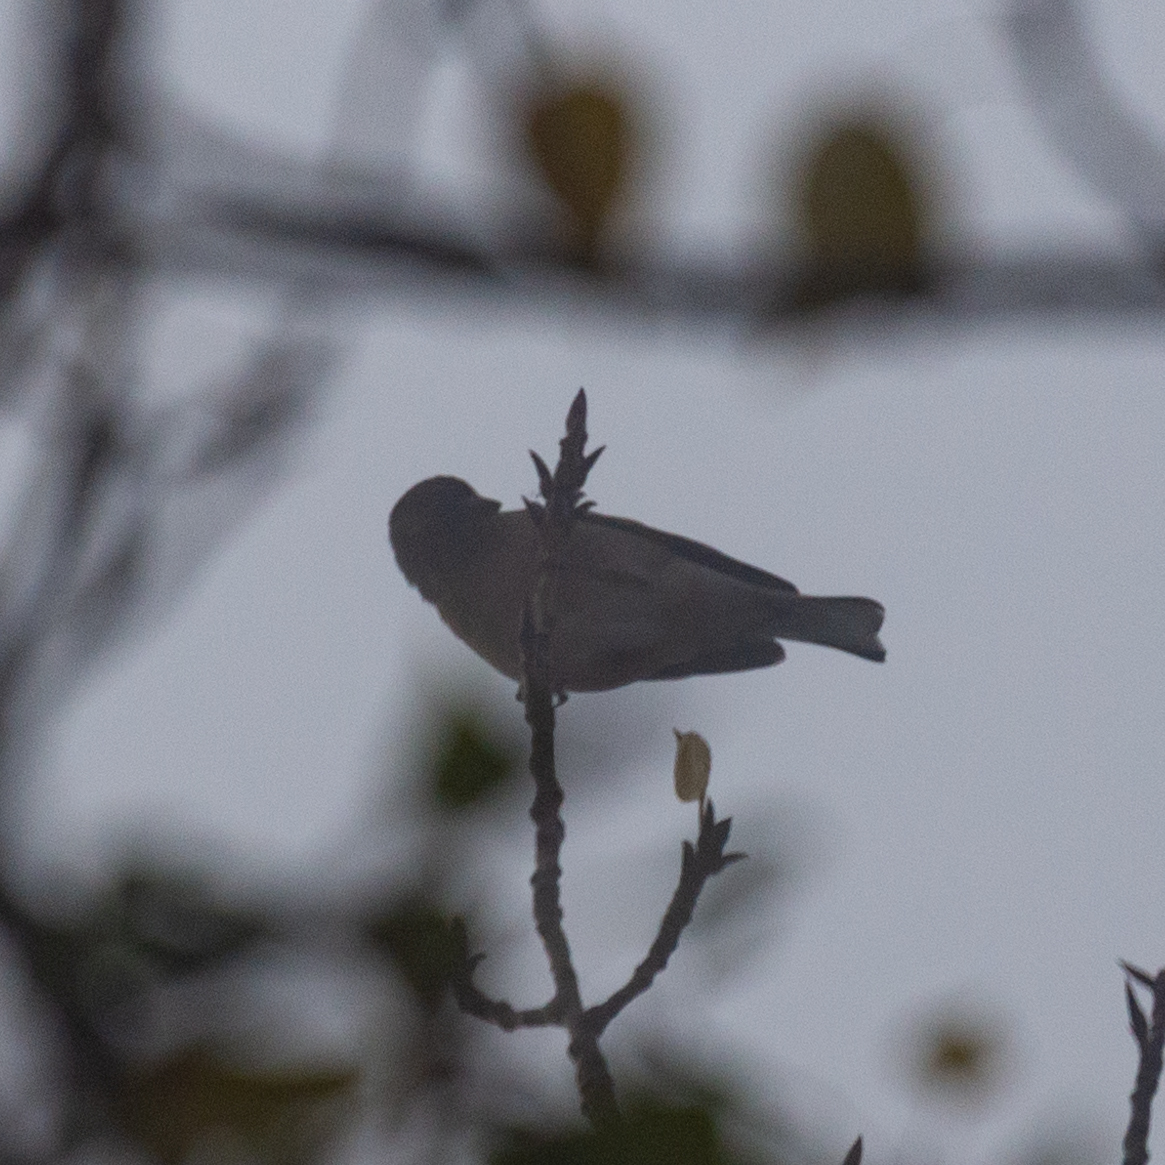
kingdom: Animalia
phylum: Chordata
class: Aves
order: Passeriformes
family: Fringillidae
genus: Fringilla
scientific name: Fringilla coelebs
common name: Common chaffinch
